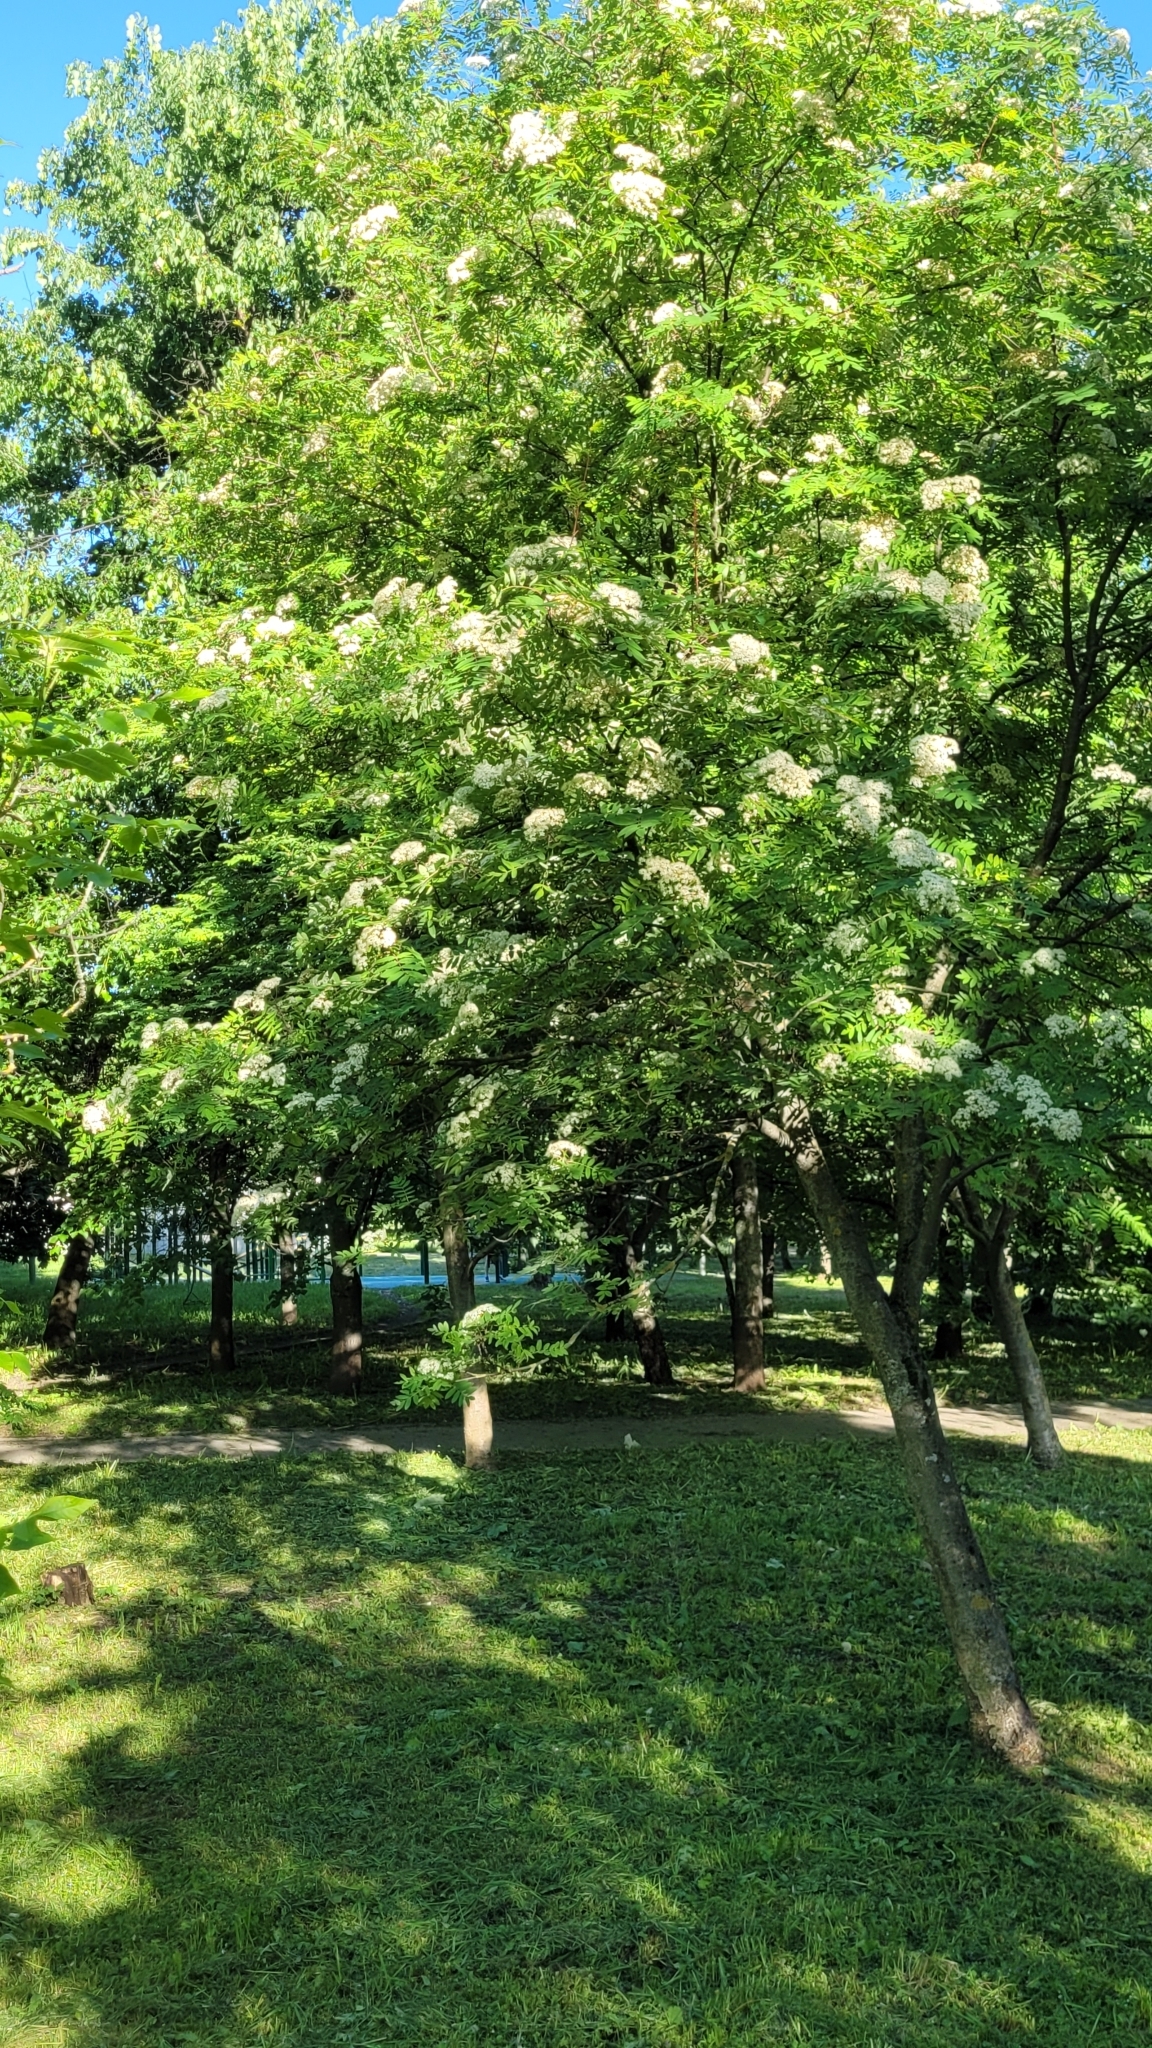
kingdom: Plantae
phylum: Tracheophyta
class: Magnoliopsida
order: Rosales
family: Rosaceae
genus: Sorbus
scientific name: Sorbus aucuparia
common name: Rowan
